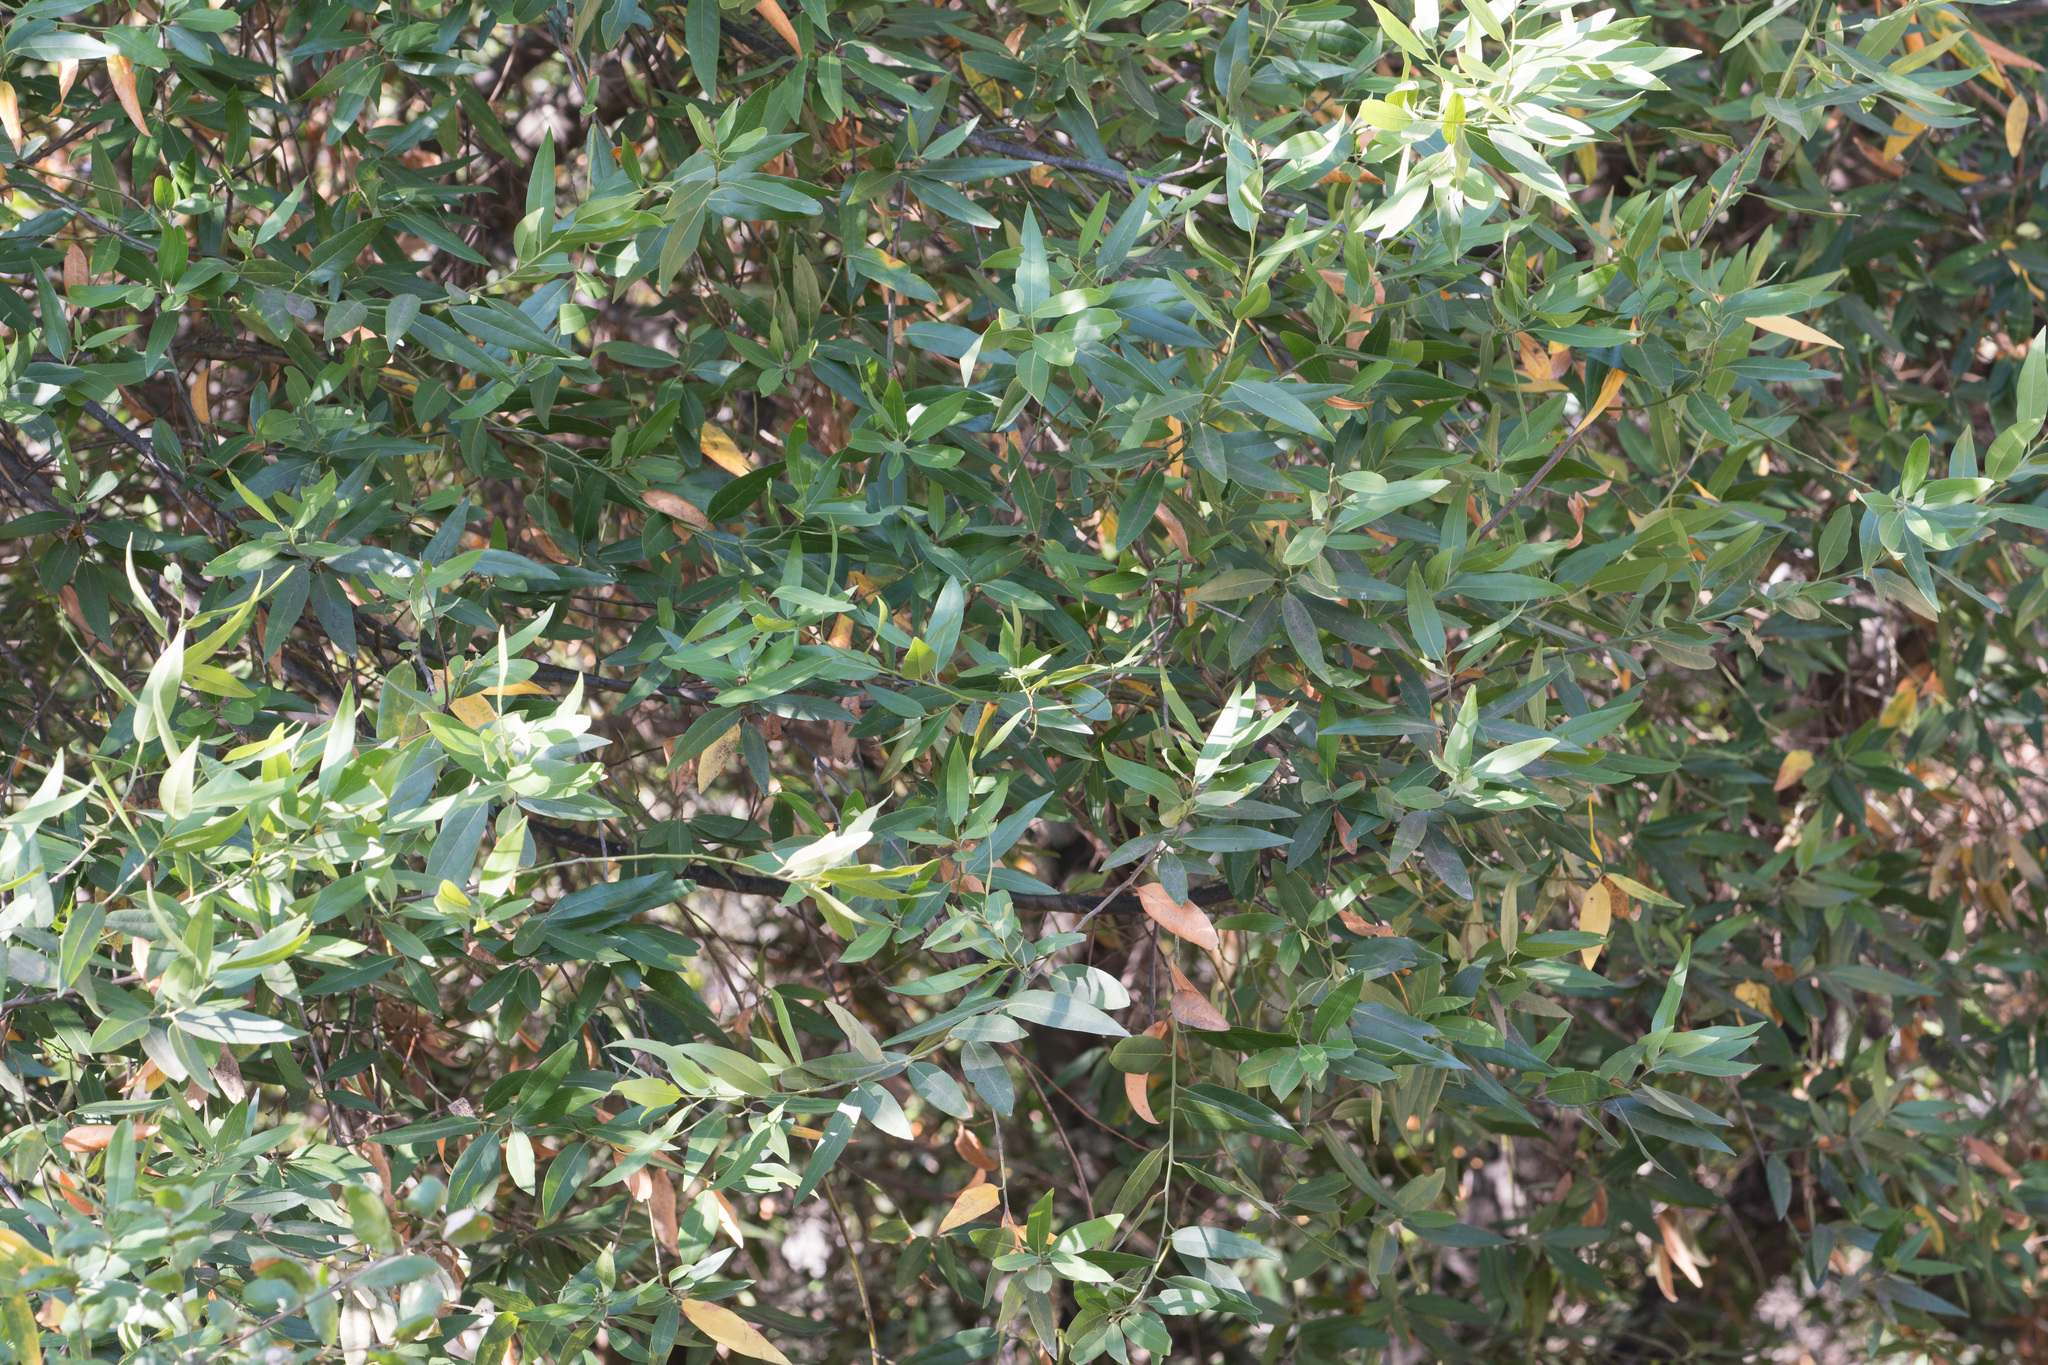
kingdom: Plantae
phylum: Tracheophyta
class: Magnoliopsida
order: Laurales
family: Lauraceae
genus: Umbellularia
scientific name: Umbellularia californica
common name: California bay
